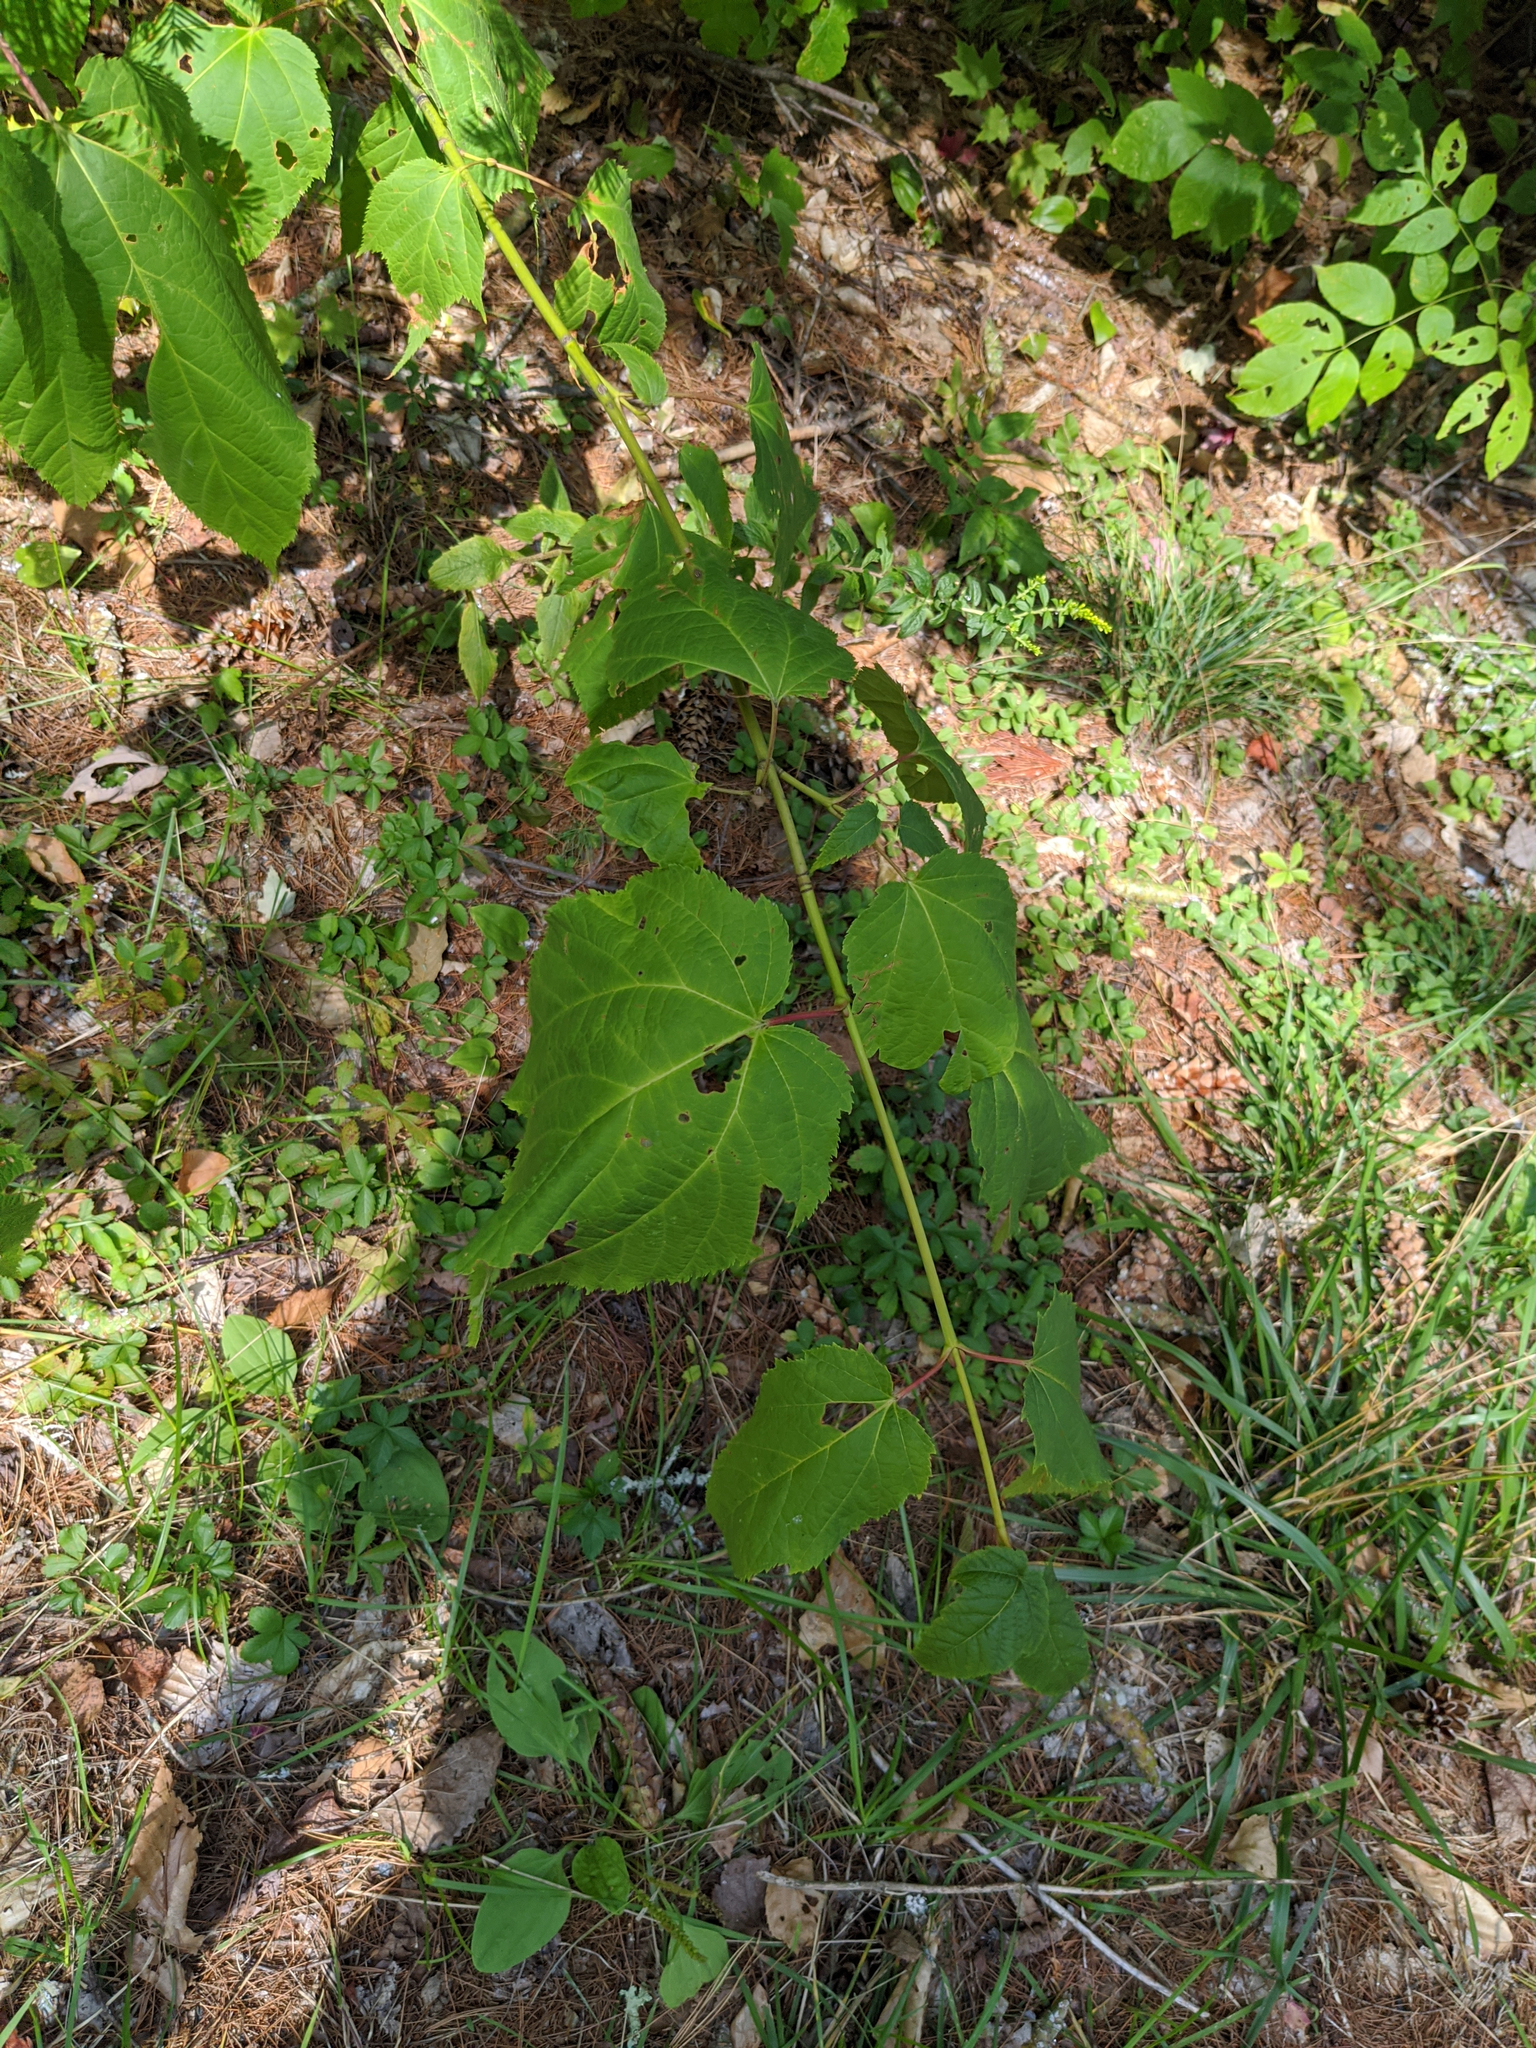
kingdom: Plantae
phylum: Tracheophyta
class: Magnoliopsida
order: Sapindales
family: Sapindaceae
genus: Acer
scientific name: Acer pensylvanicum
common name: Moosewood
